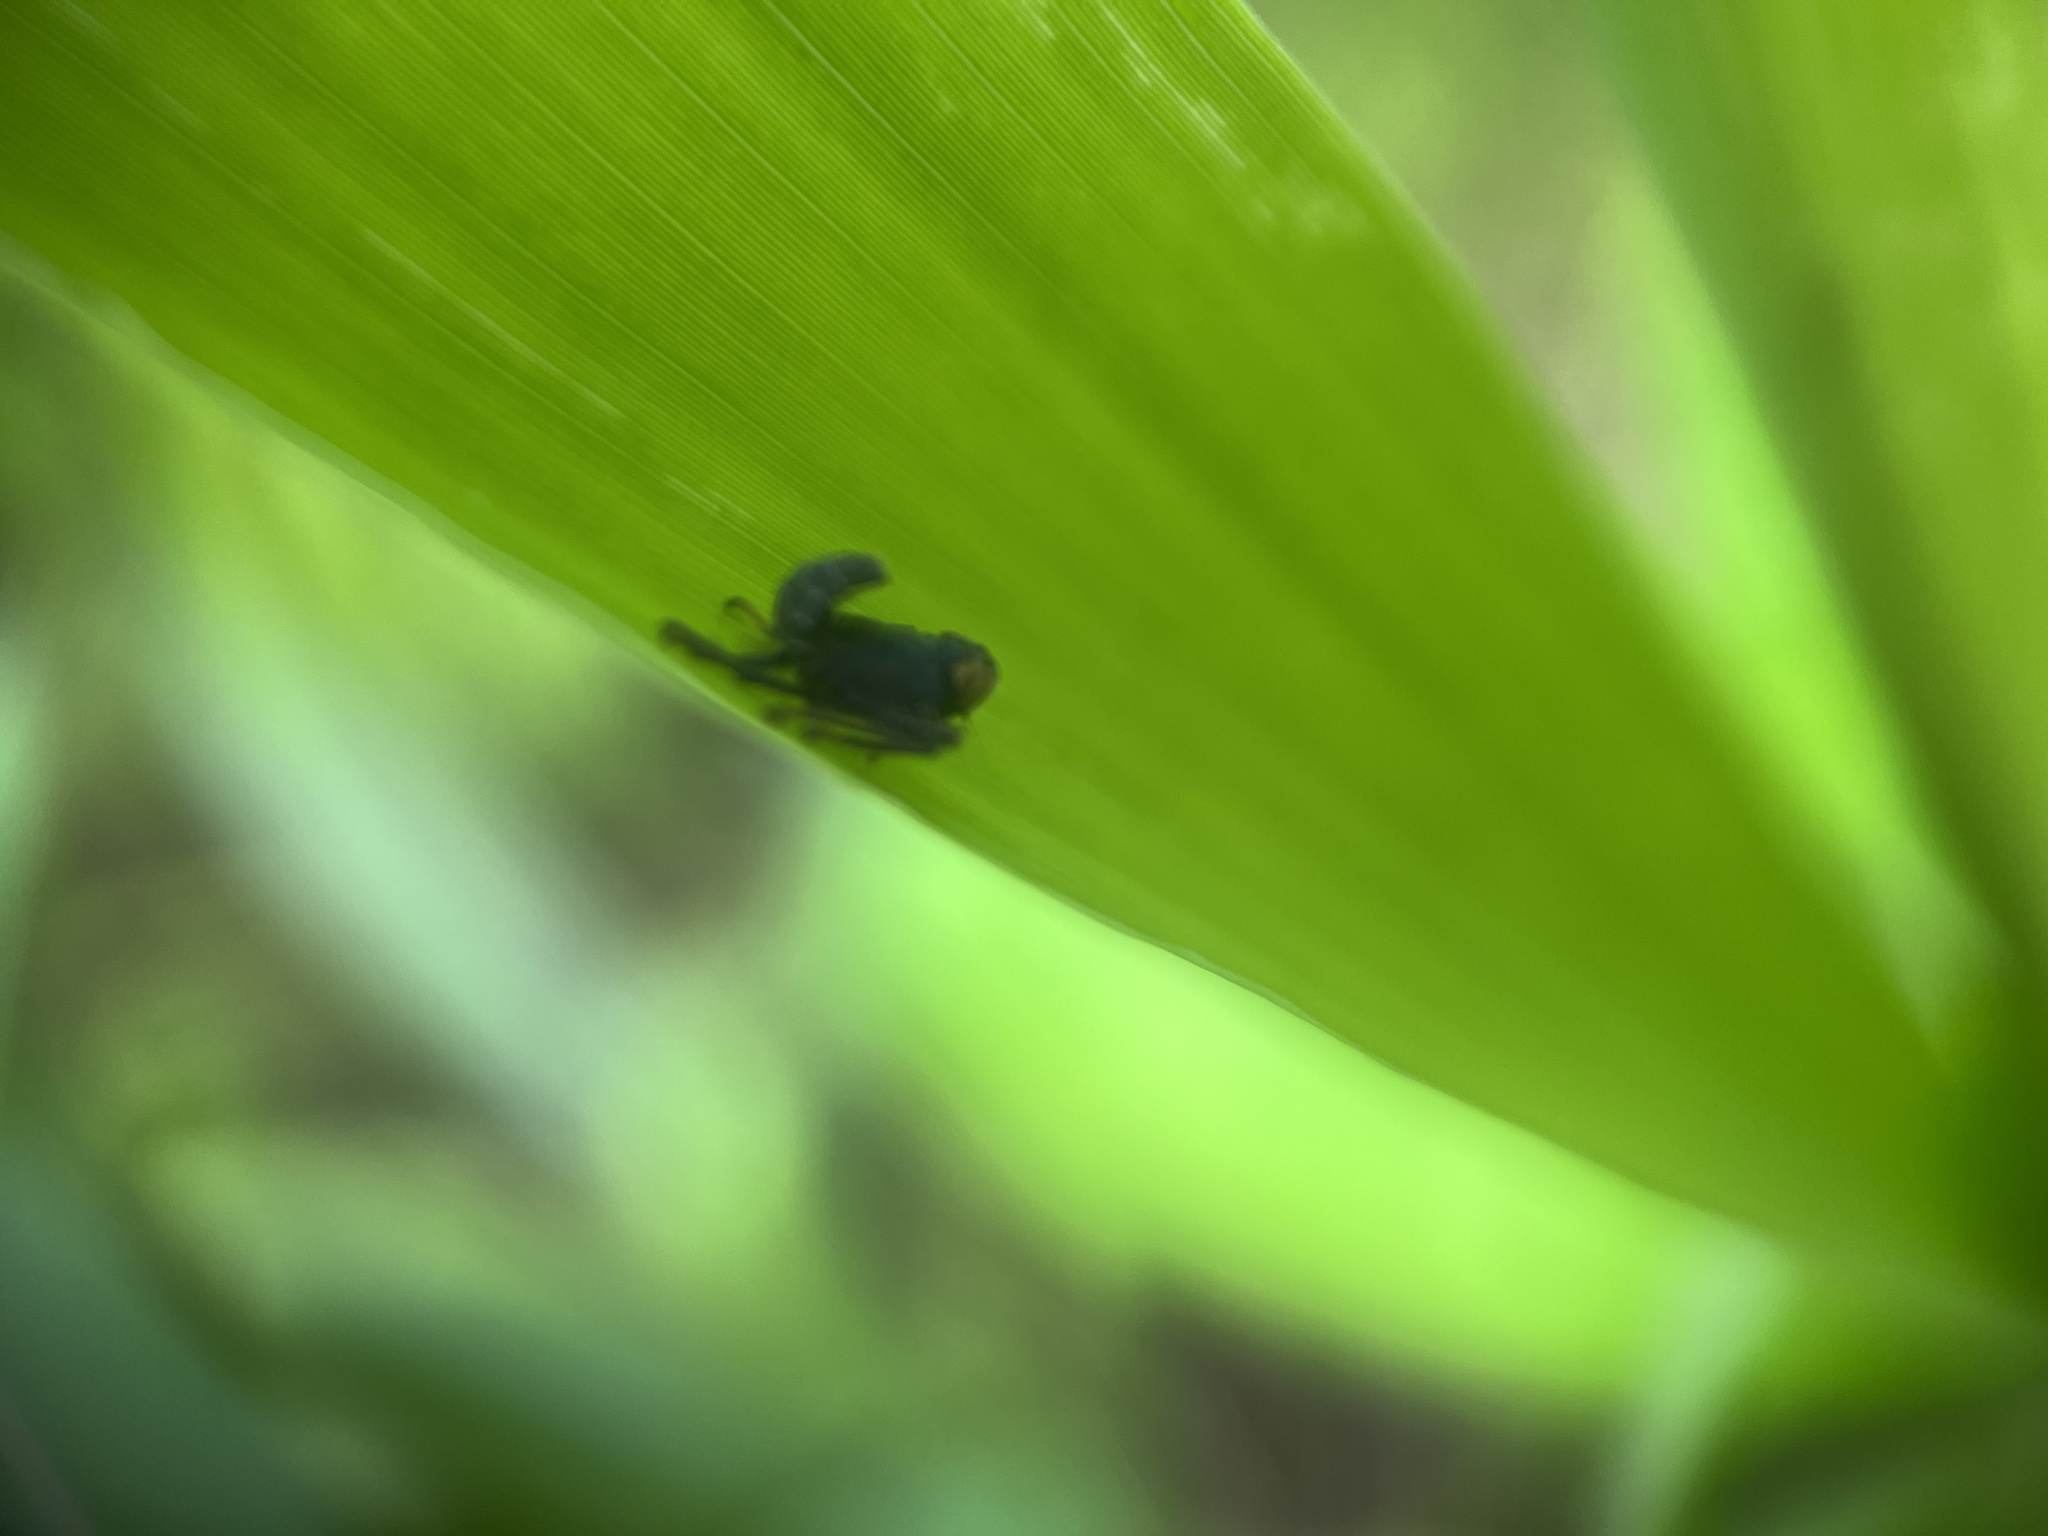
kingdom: Animalia
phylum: Arthropoda
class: Insecta
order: Hemiptera
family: Cicadellidae
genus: Jikradia
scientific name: Jikradia olitoria
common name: Coppery leafhopper
